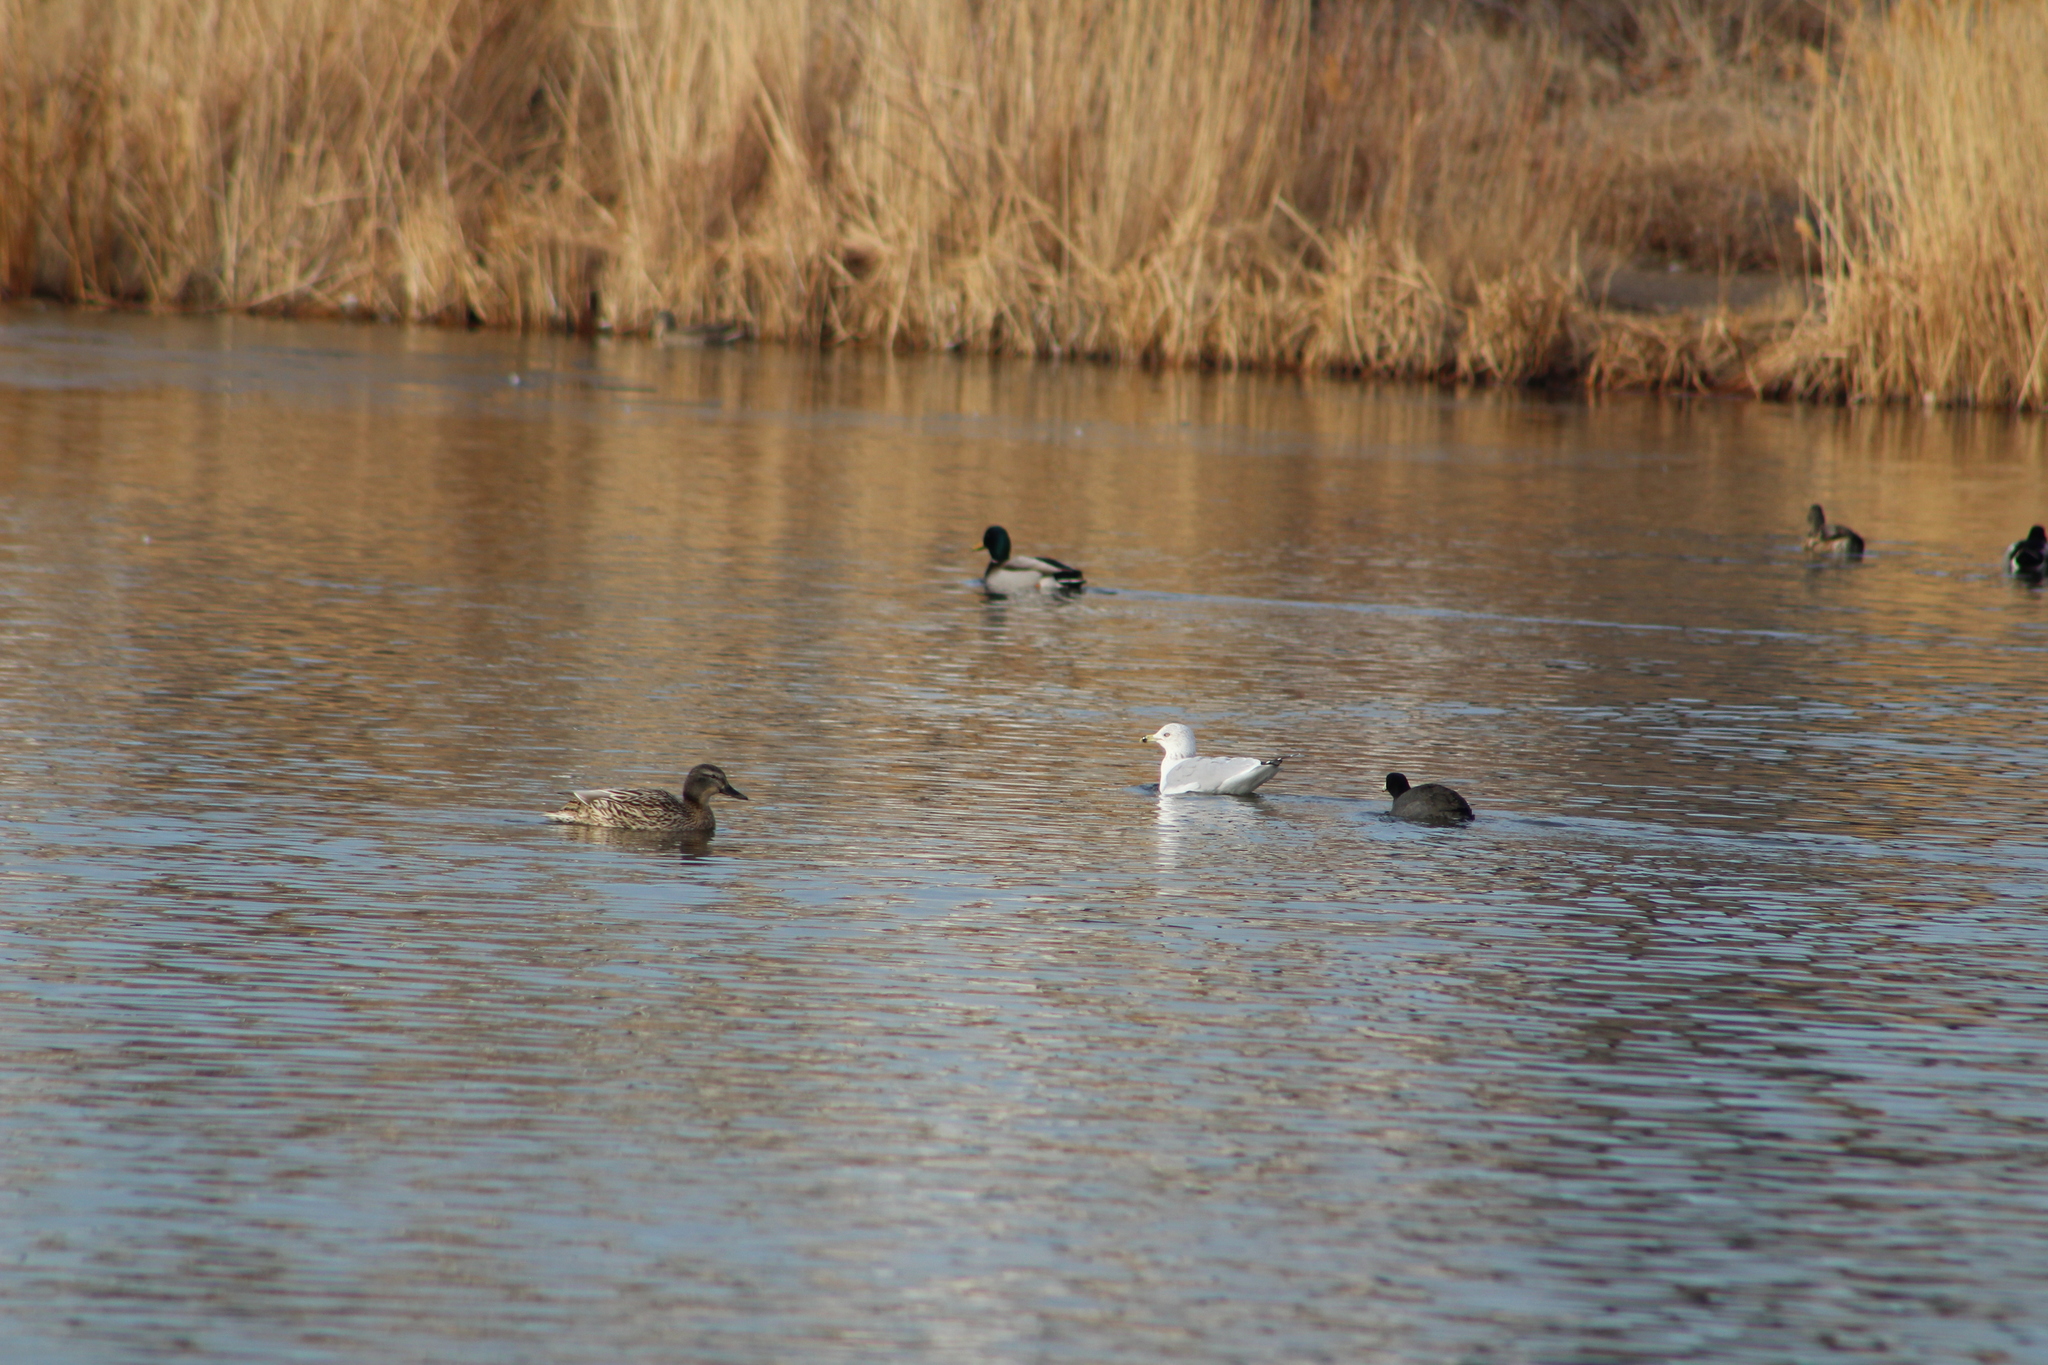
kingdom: Animalia
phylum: Chordata
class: Aves
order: Charadriiformes
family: Laridae
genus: Larus
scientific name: Larus delawarensis
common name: Ring-billed gull
